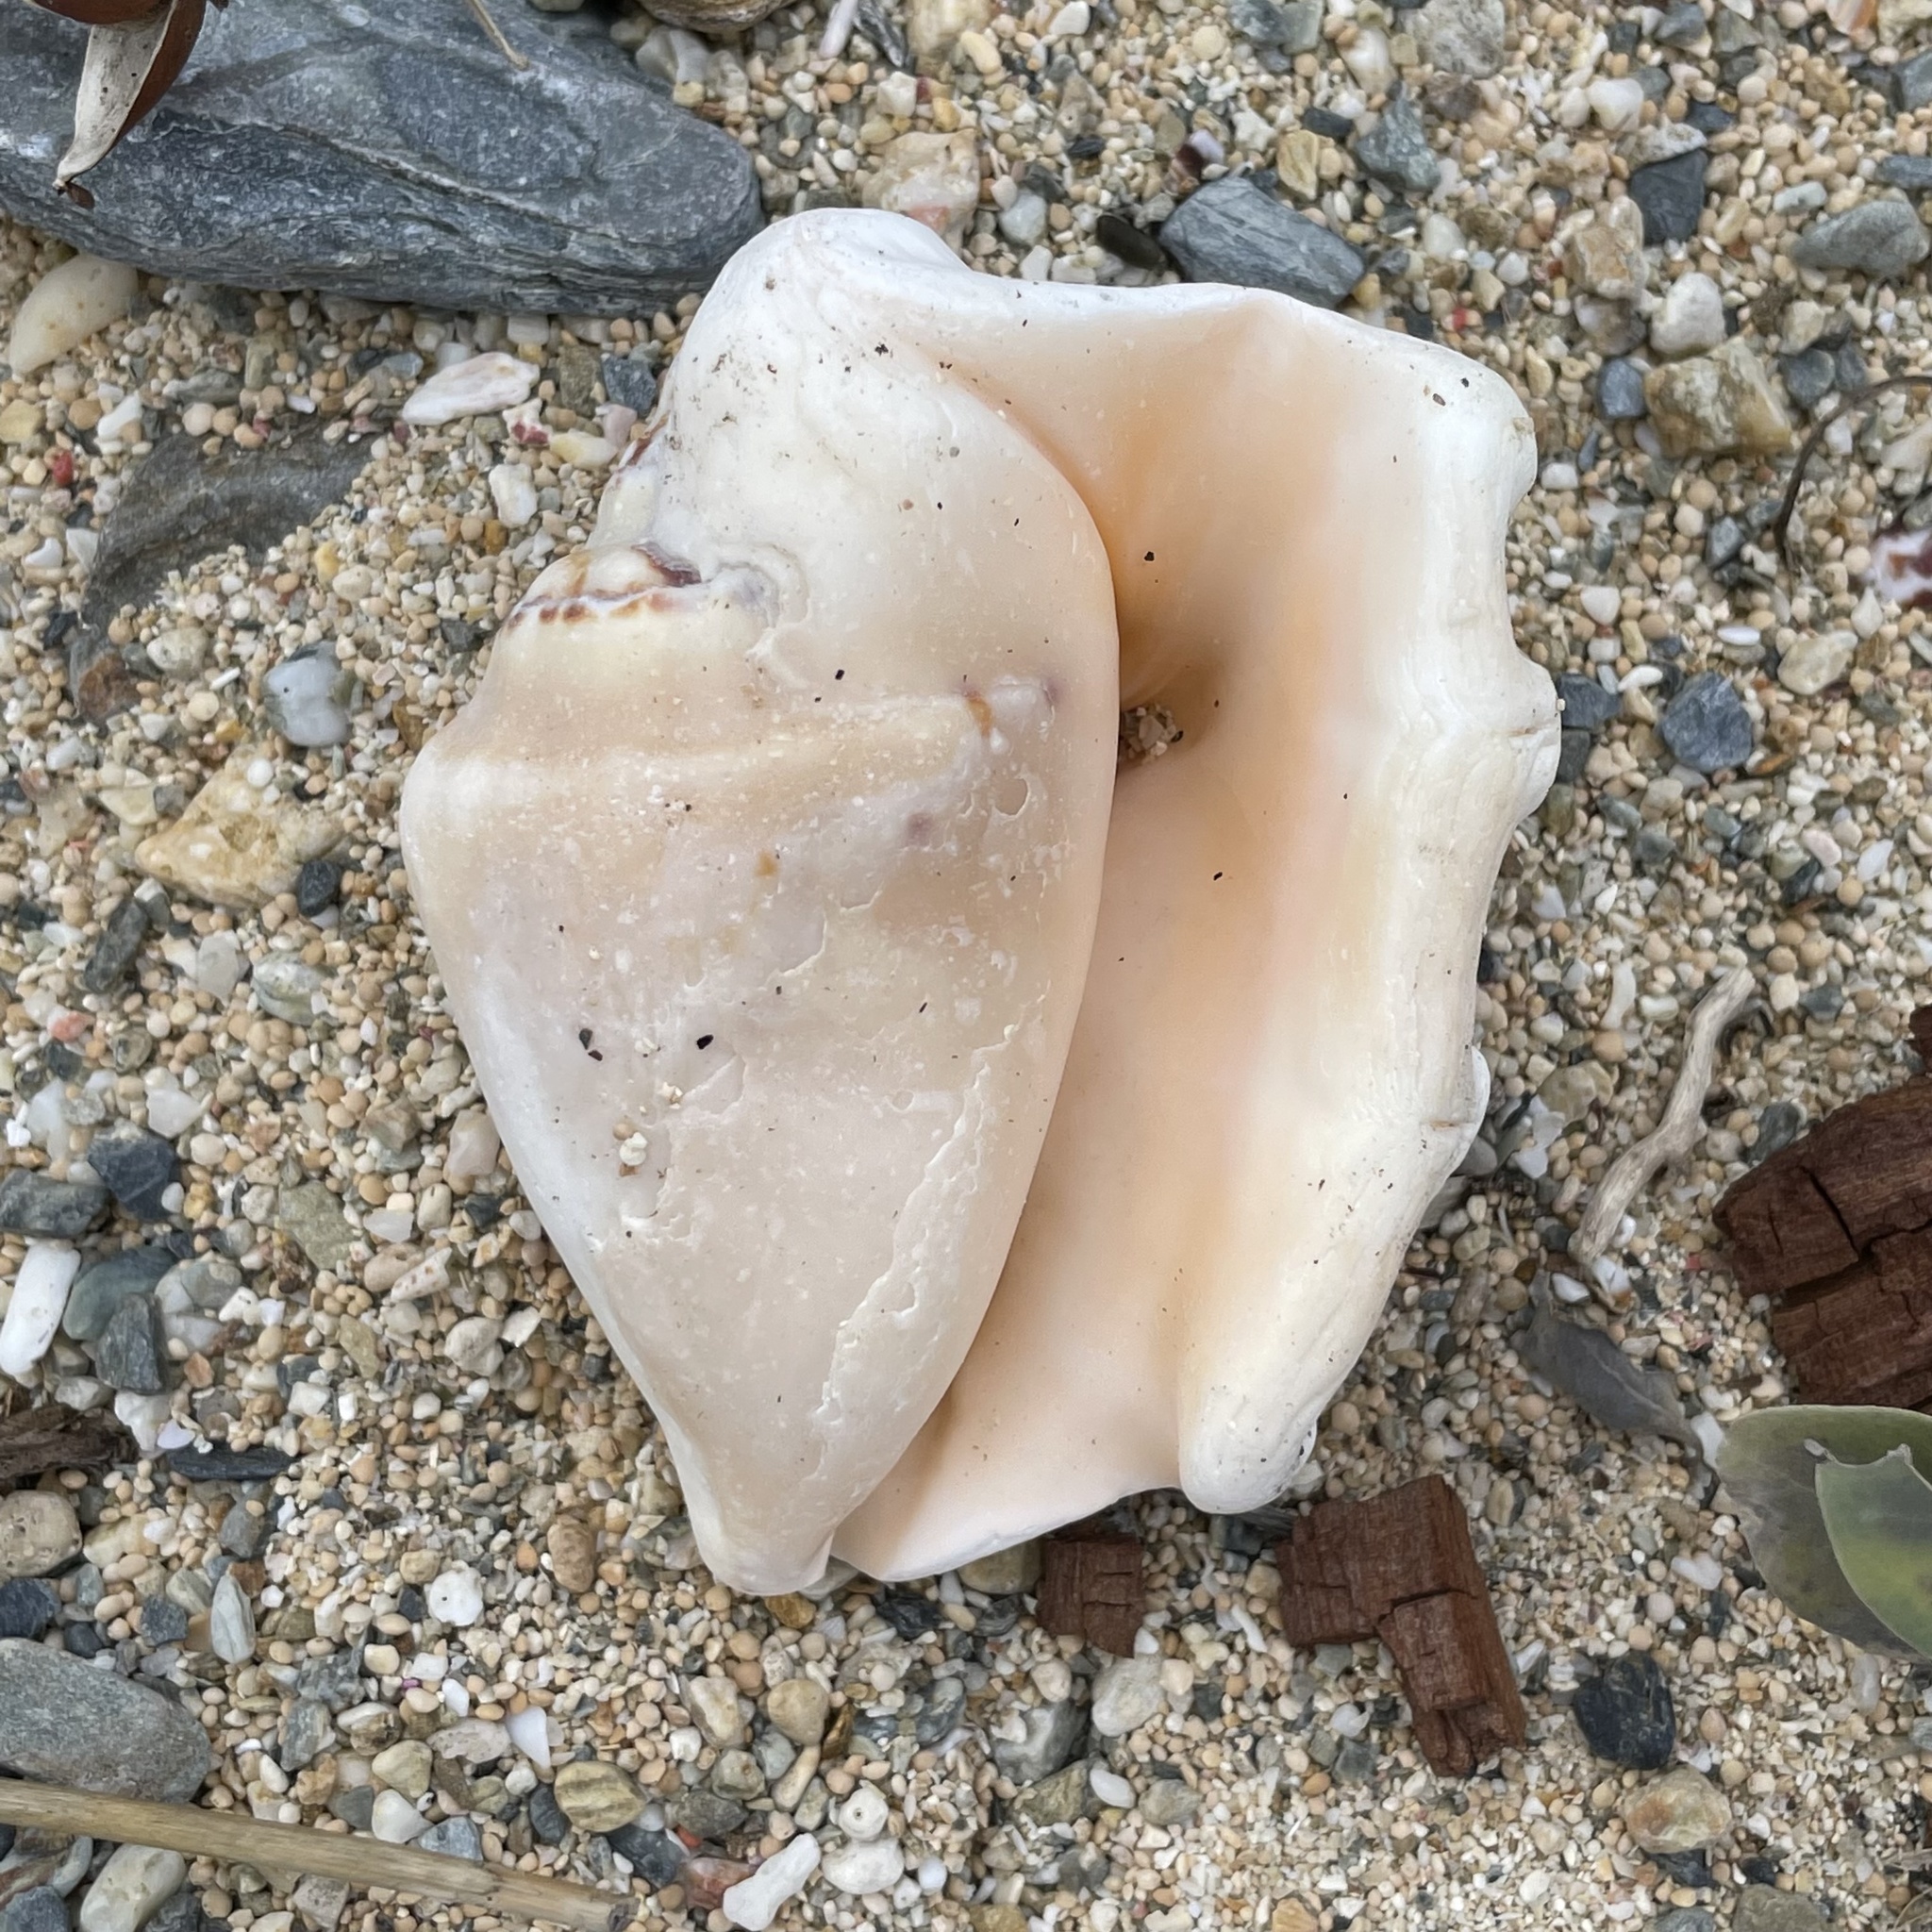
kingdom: Animalia
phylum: Mollusca
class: Gastropoda
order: Littorinimorpha
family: Strombidae
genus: Lambis
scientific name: Lambis lambis
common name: Common spider conch
